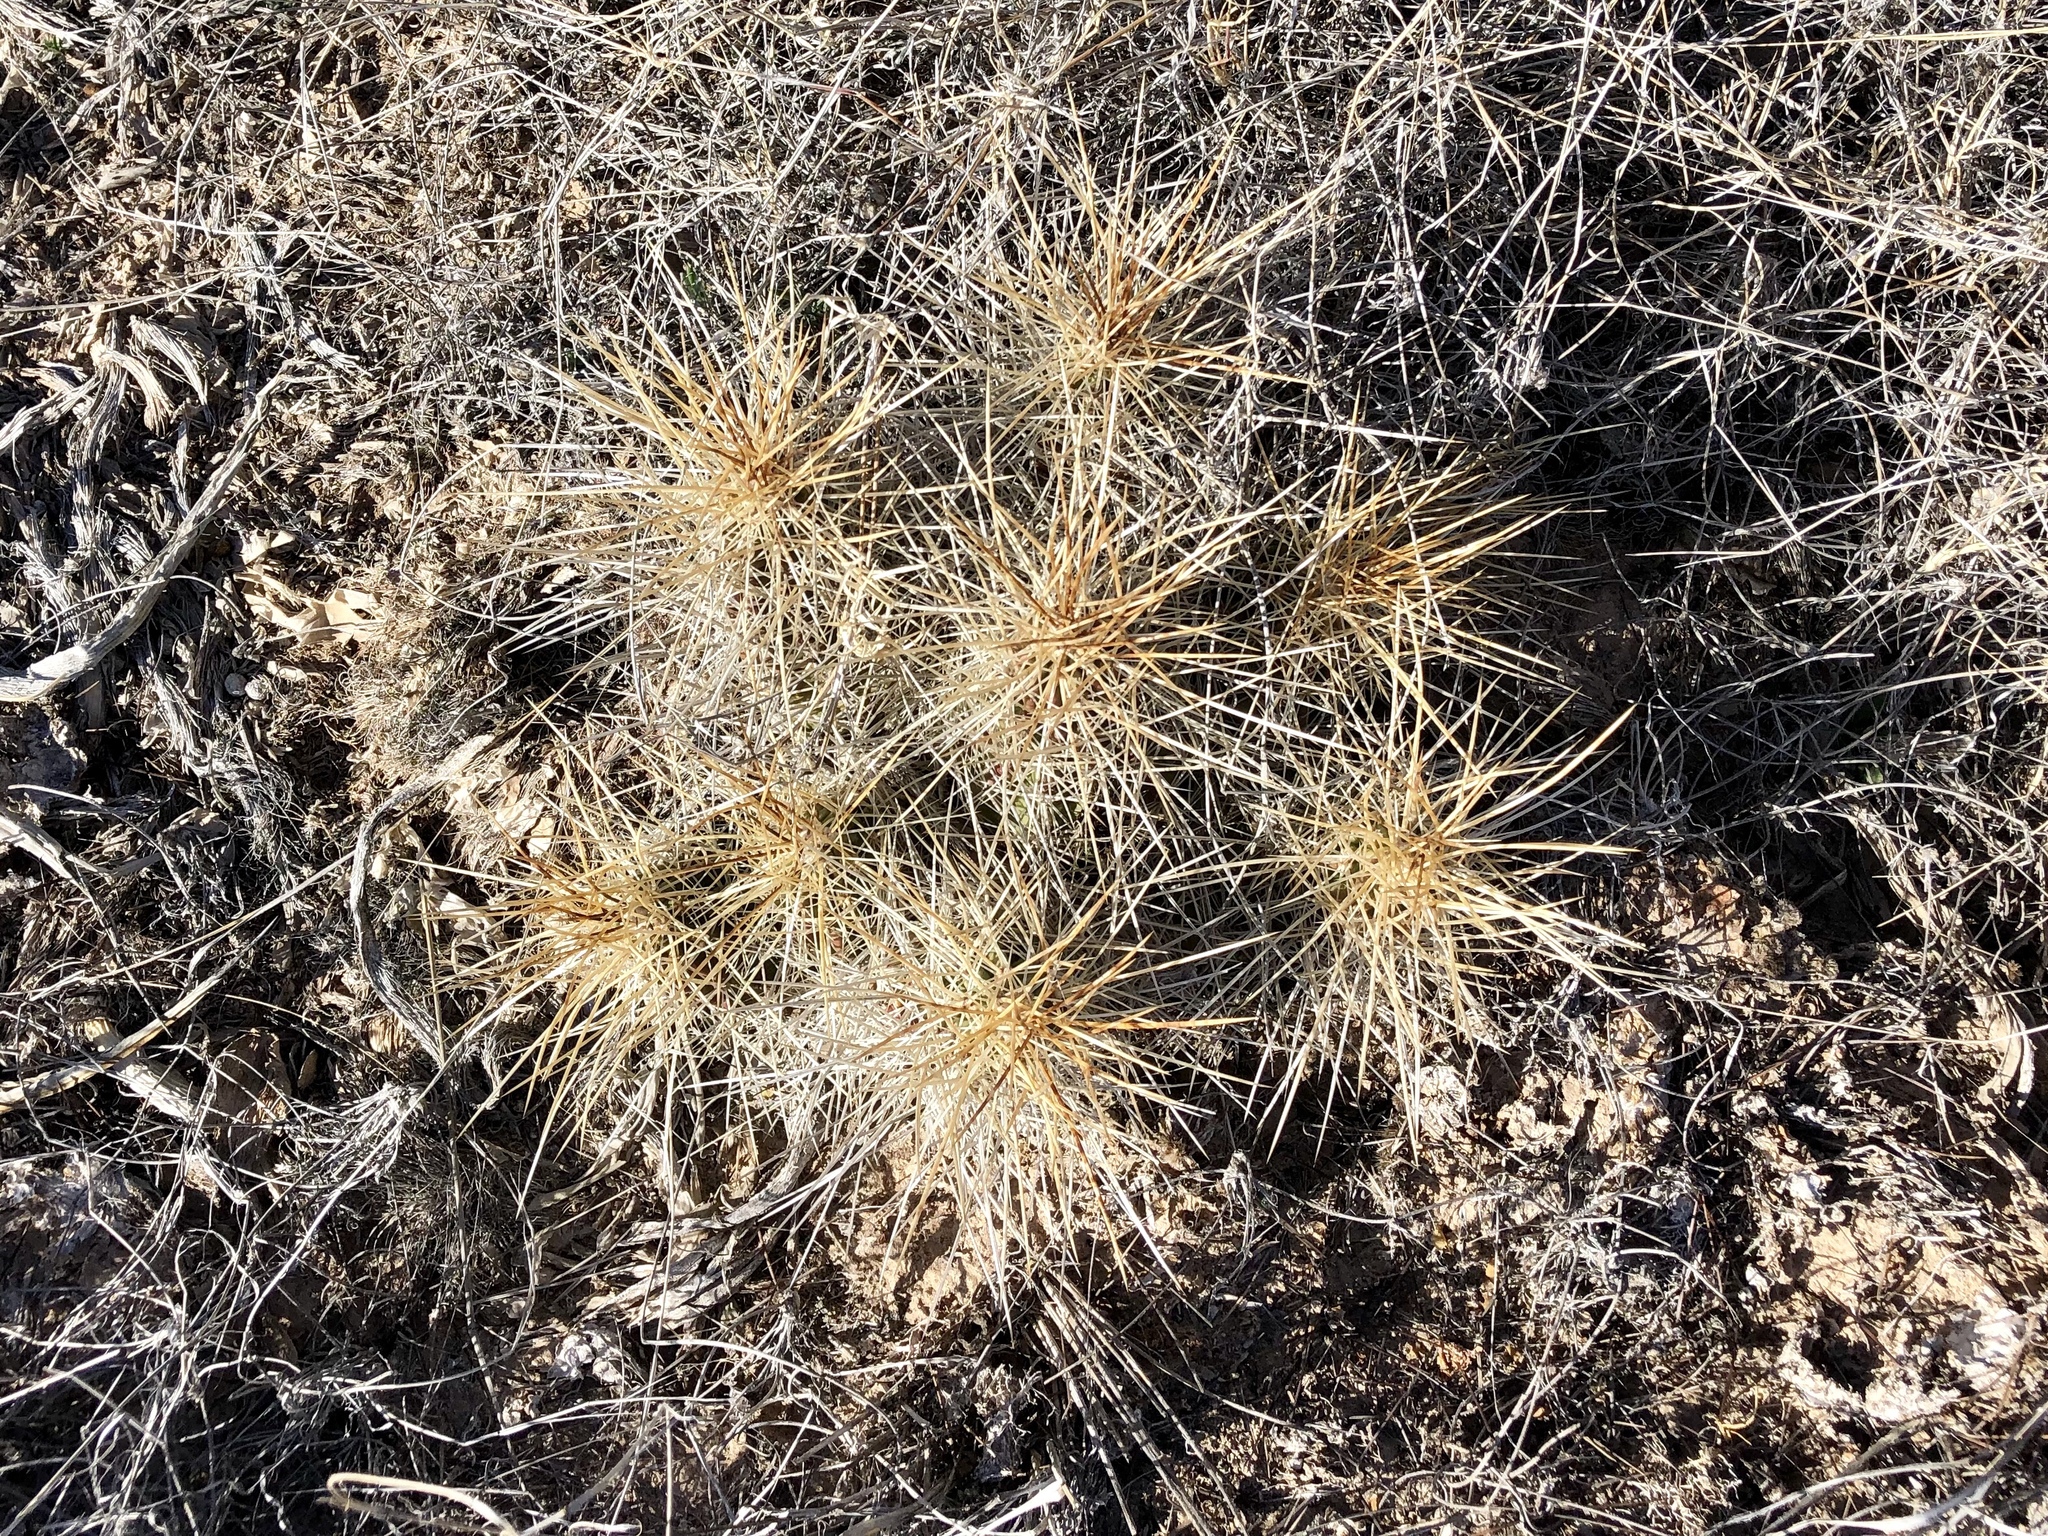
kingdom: Plantae
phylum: Tracheophyta
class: Magnoliopsida
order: Caryophyllales
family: Cactaceae
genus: Echinocereus
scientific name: Echinocereus stramineus
